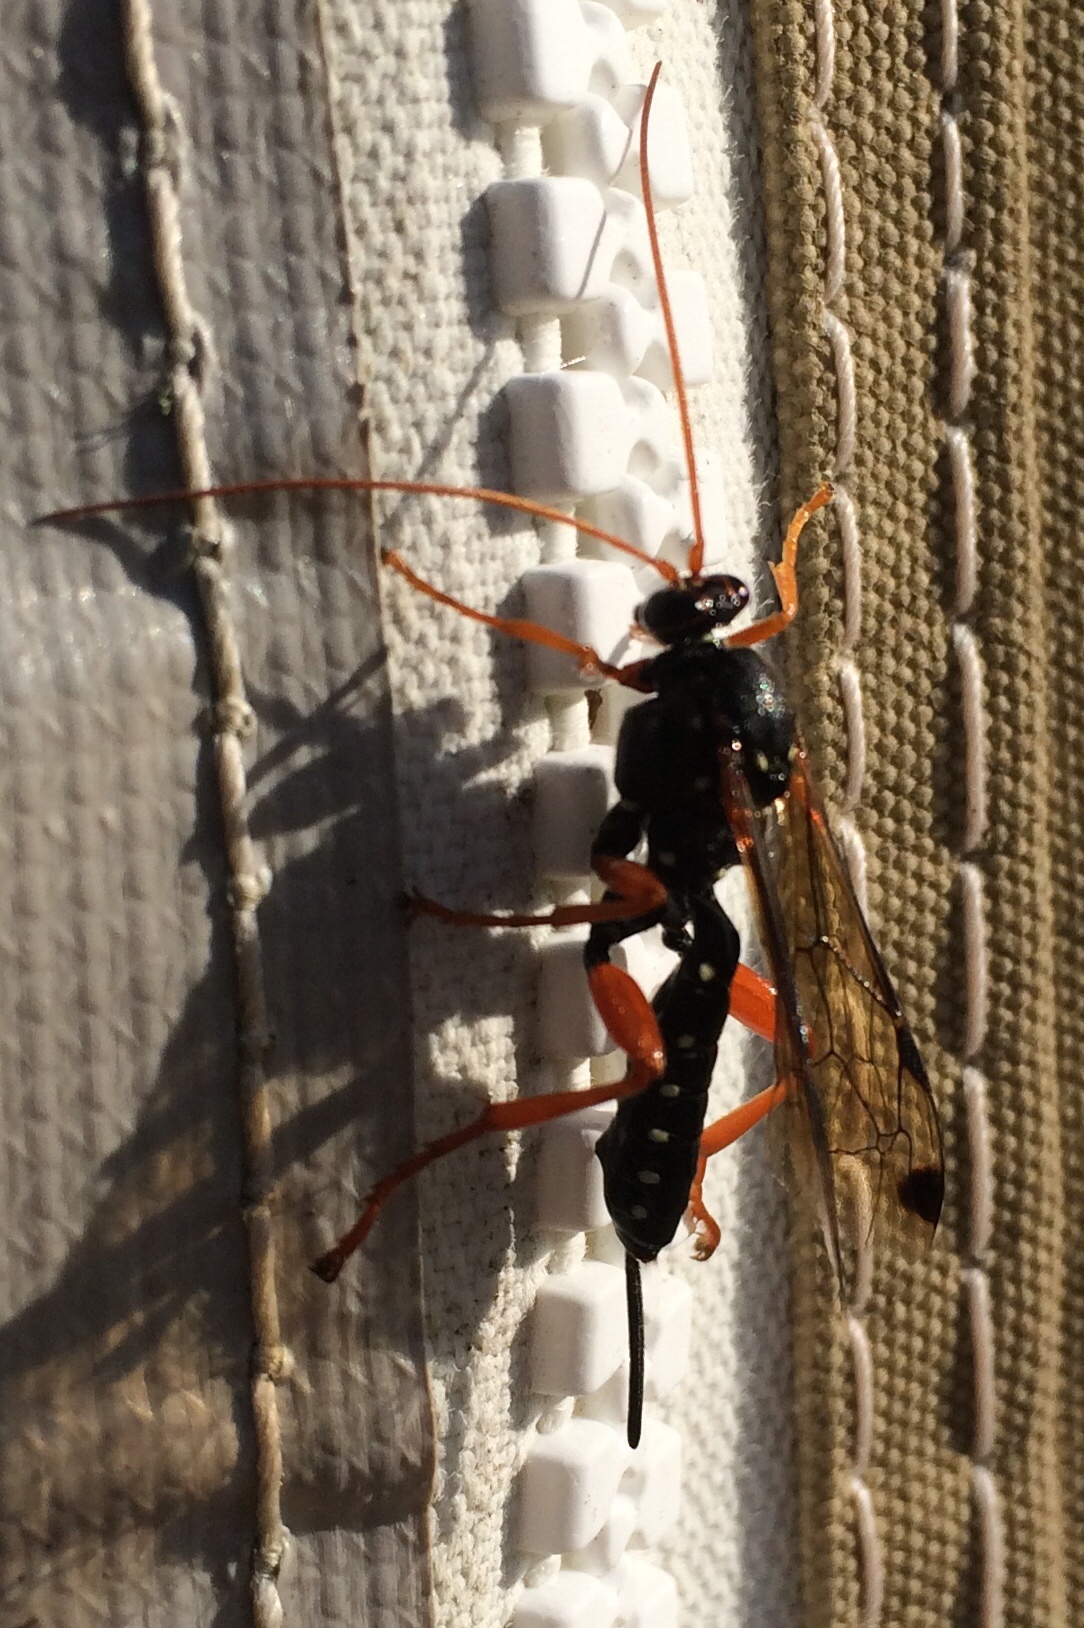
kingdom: Animalia
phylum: Arthropoda
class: Insecta
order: Hymenoptera
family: Ichneumonidae
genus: Echthromorpha
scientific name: Echthromorpha intricatoria
